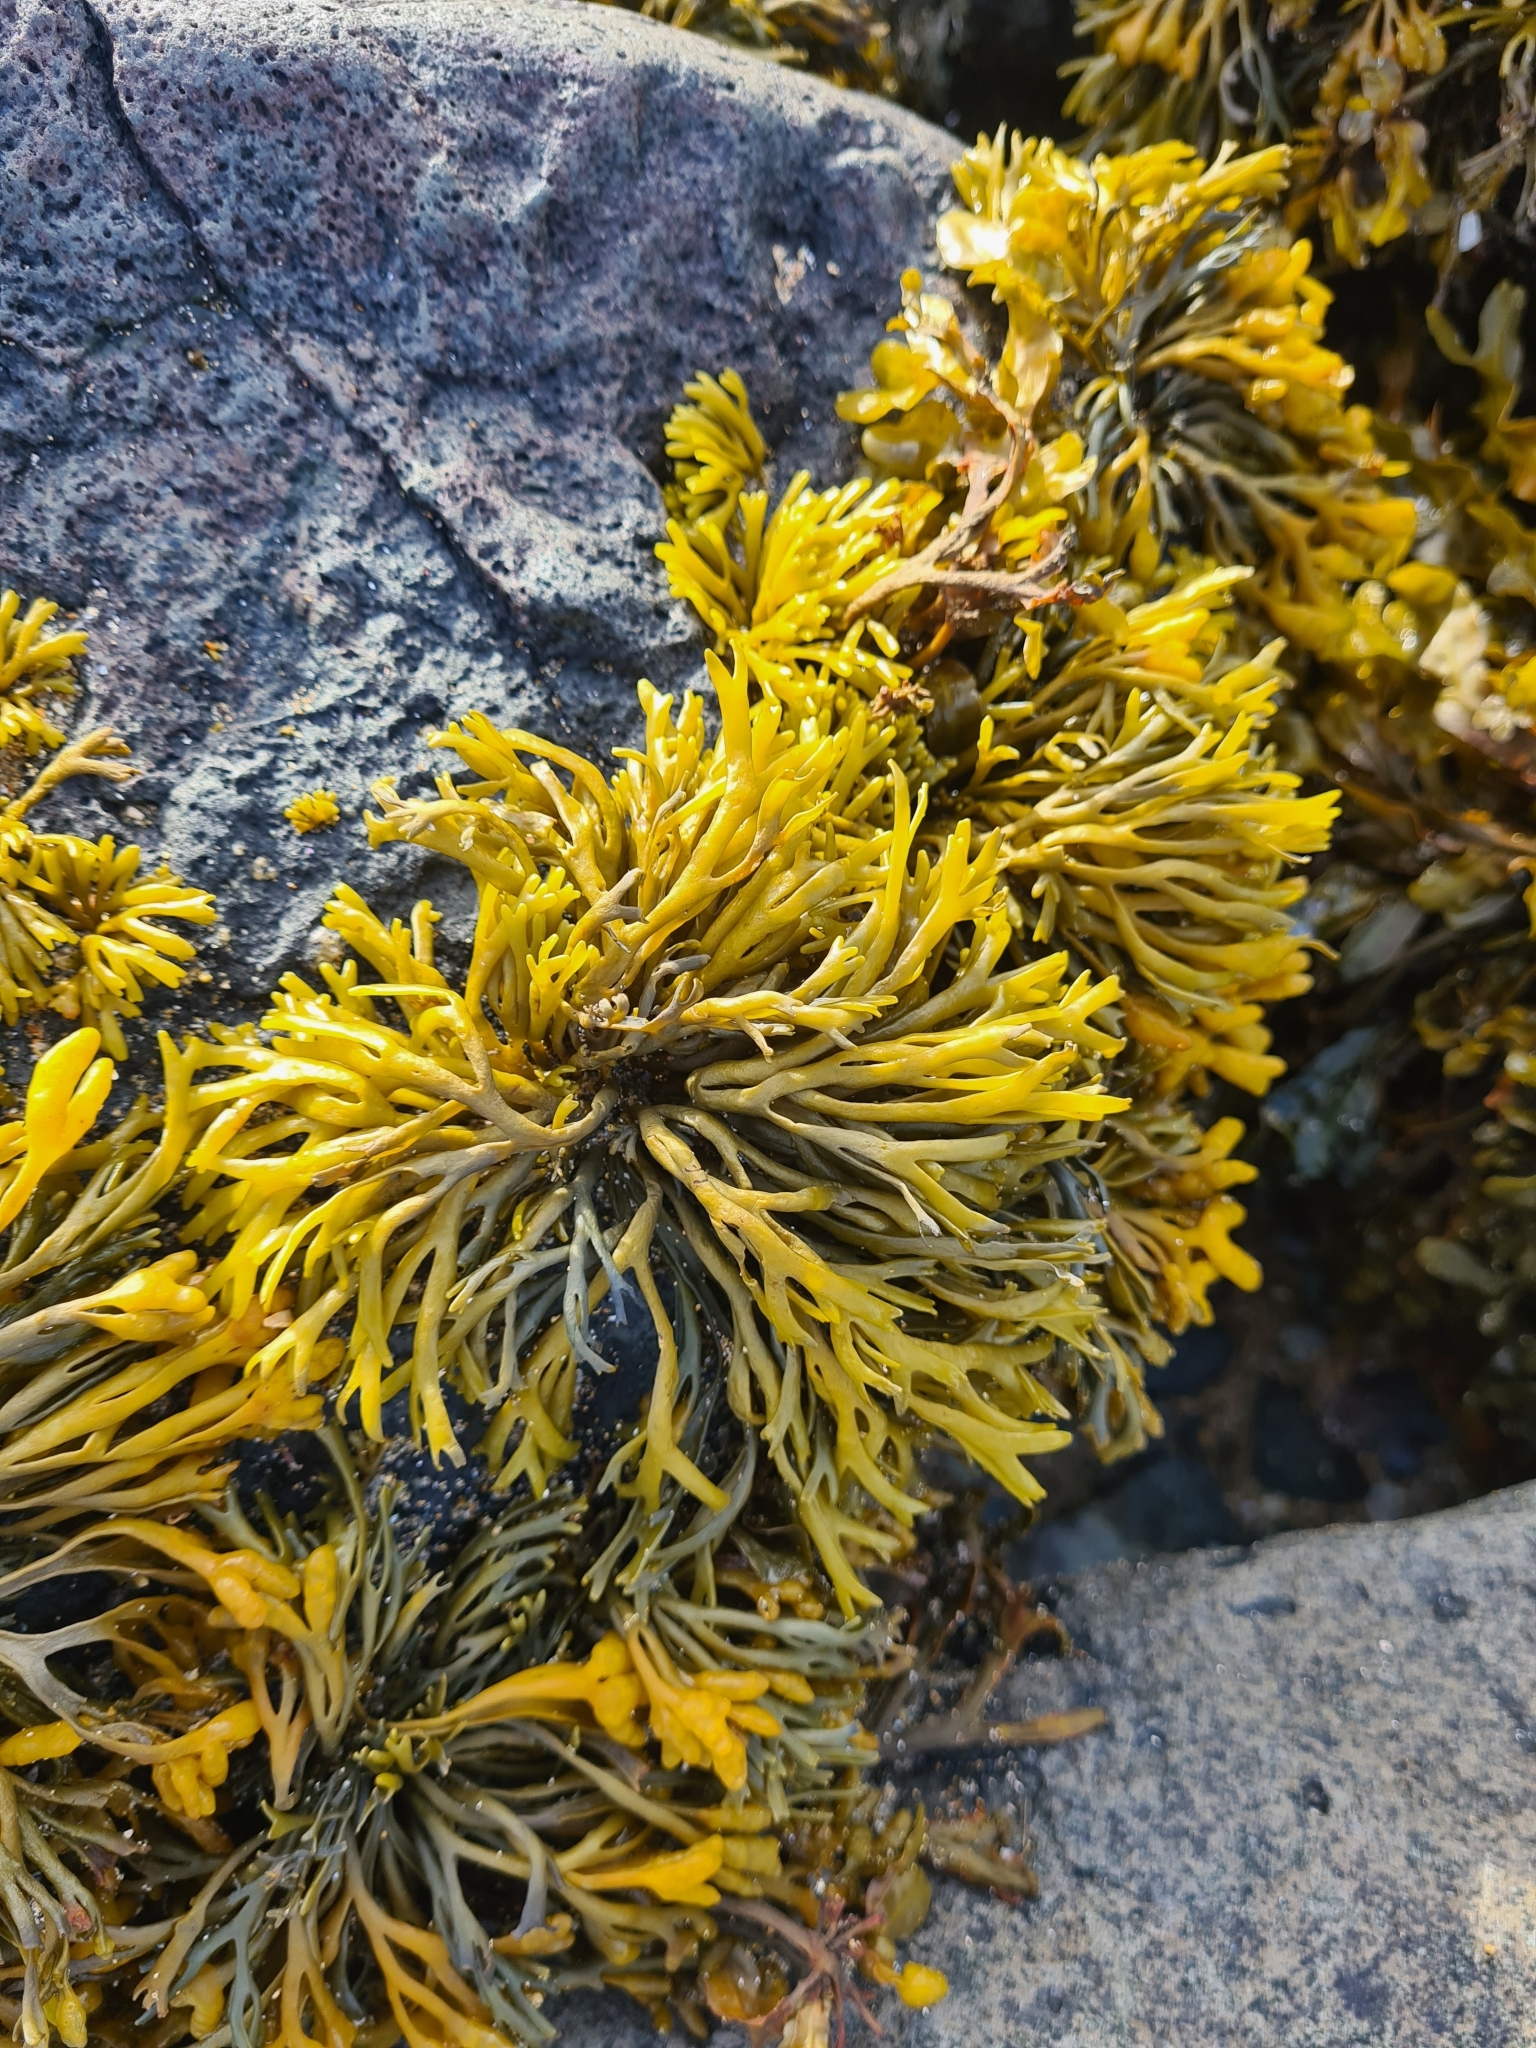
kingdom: Chromista
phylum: Ochrophyta
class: Phaeophyceae
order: Fucales
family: Fucaceae
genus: Pelvetia
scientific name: Pelvetia canaliculata
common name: Channelled wrack
